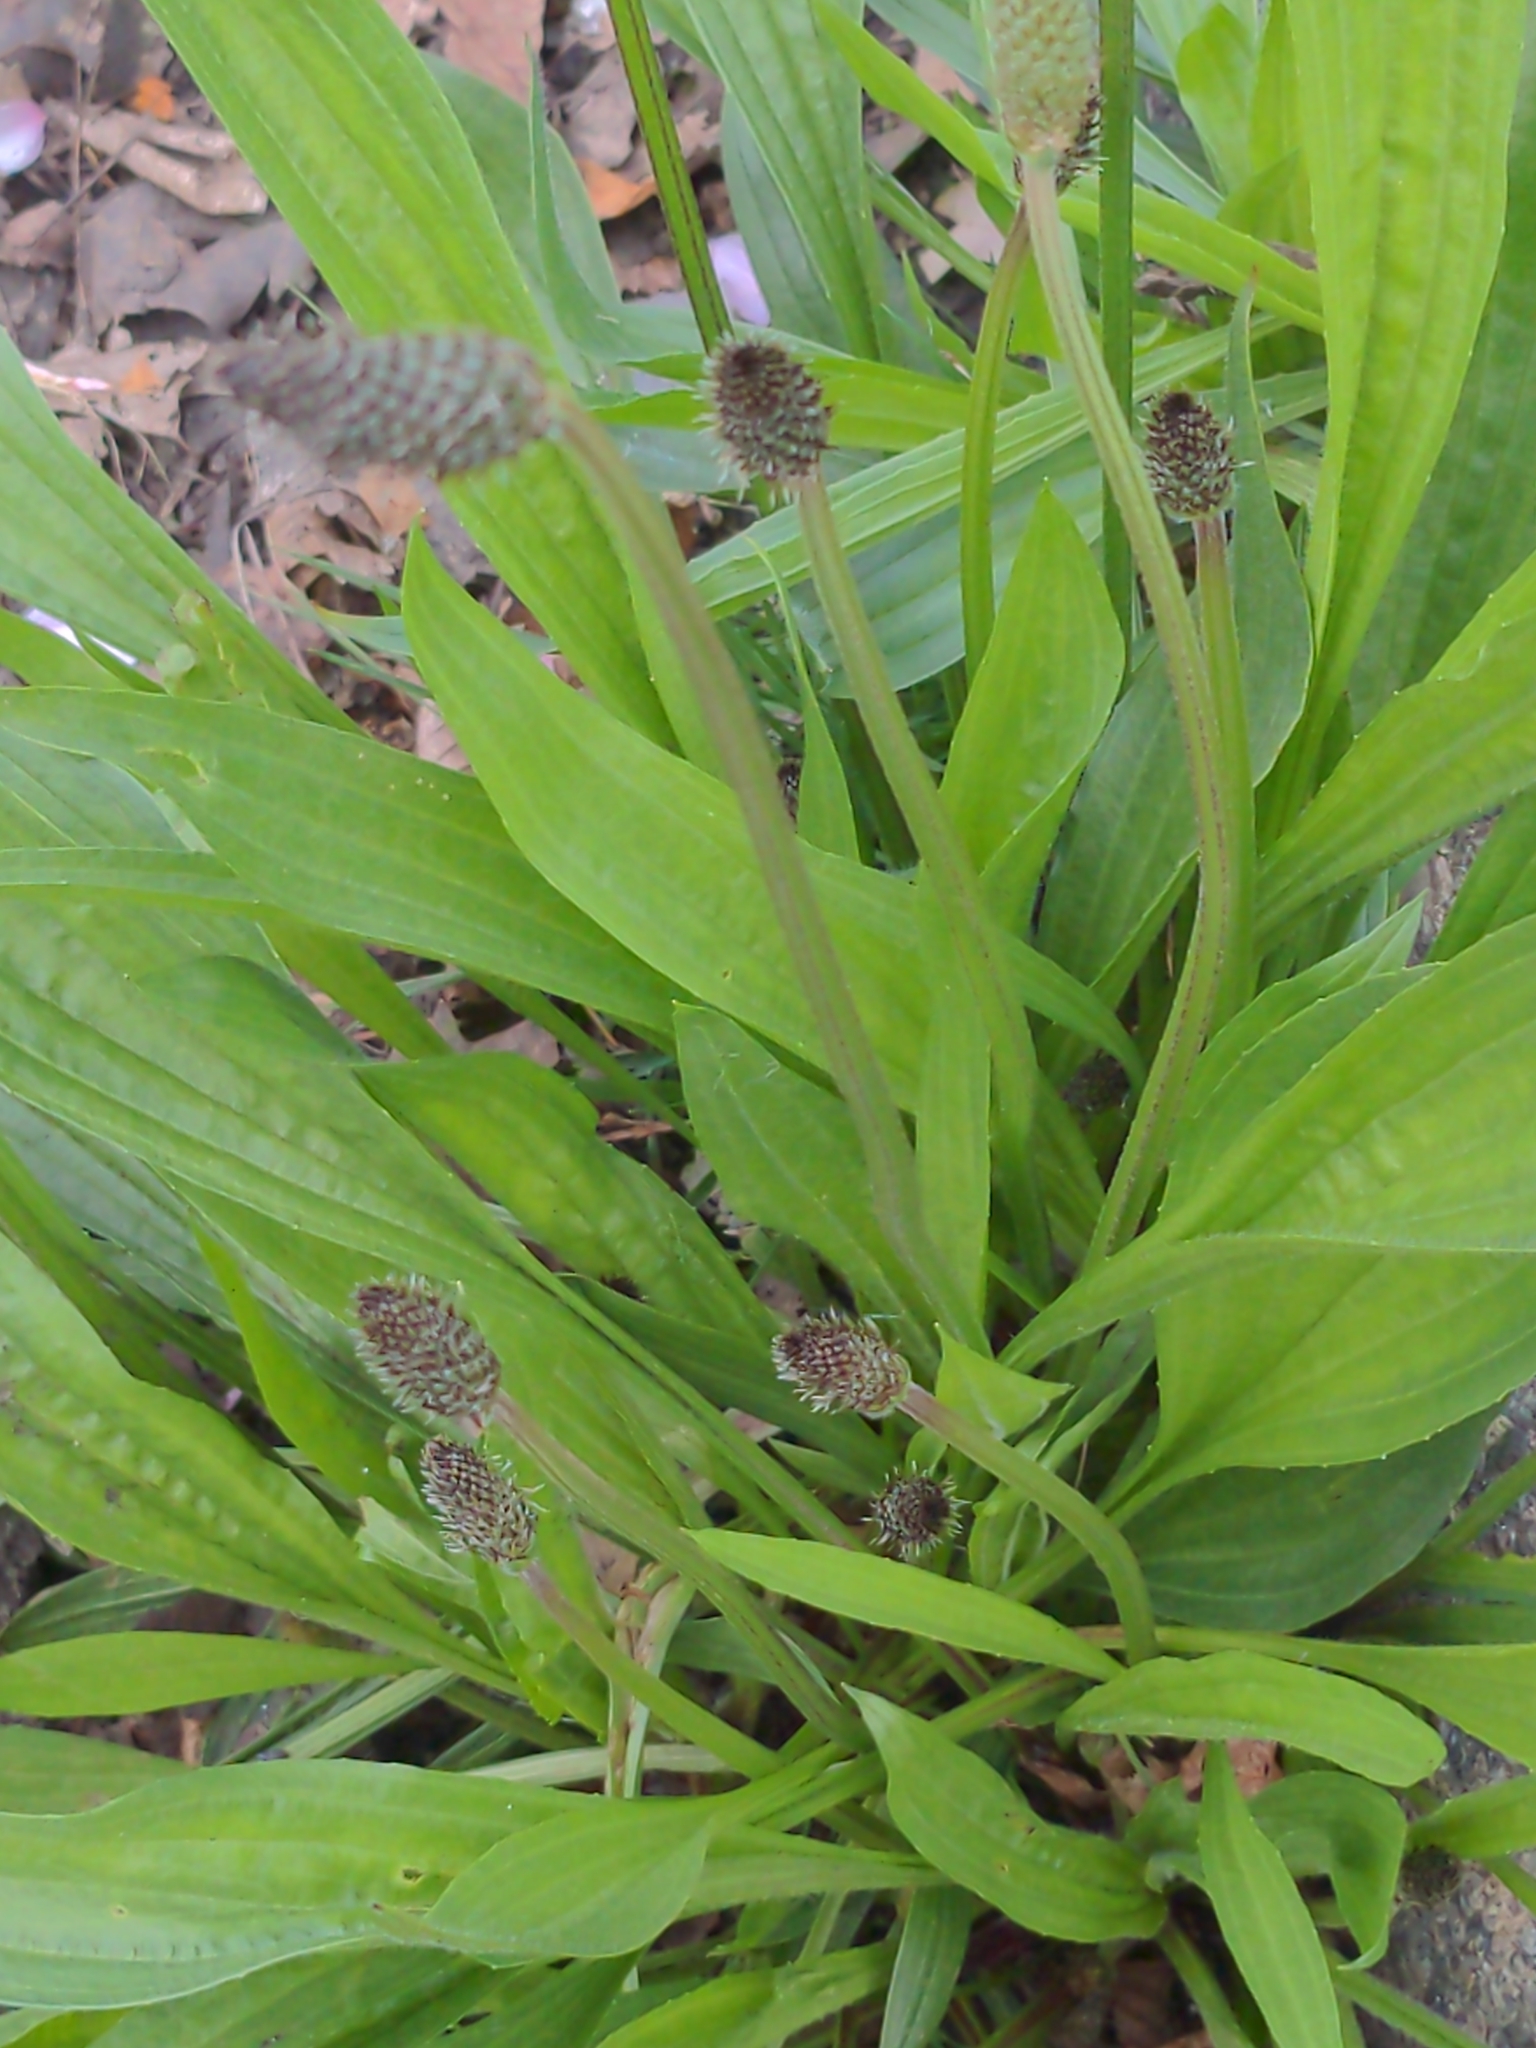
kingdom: Plantae
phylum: Tracheophyta
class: Magnoliopsida
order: Lamiales
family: Plantaginaceae
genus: Plantago
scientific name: Plantago lanceolata
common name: Ribwort plantain
